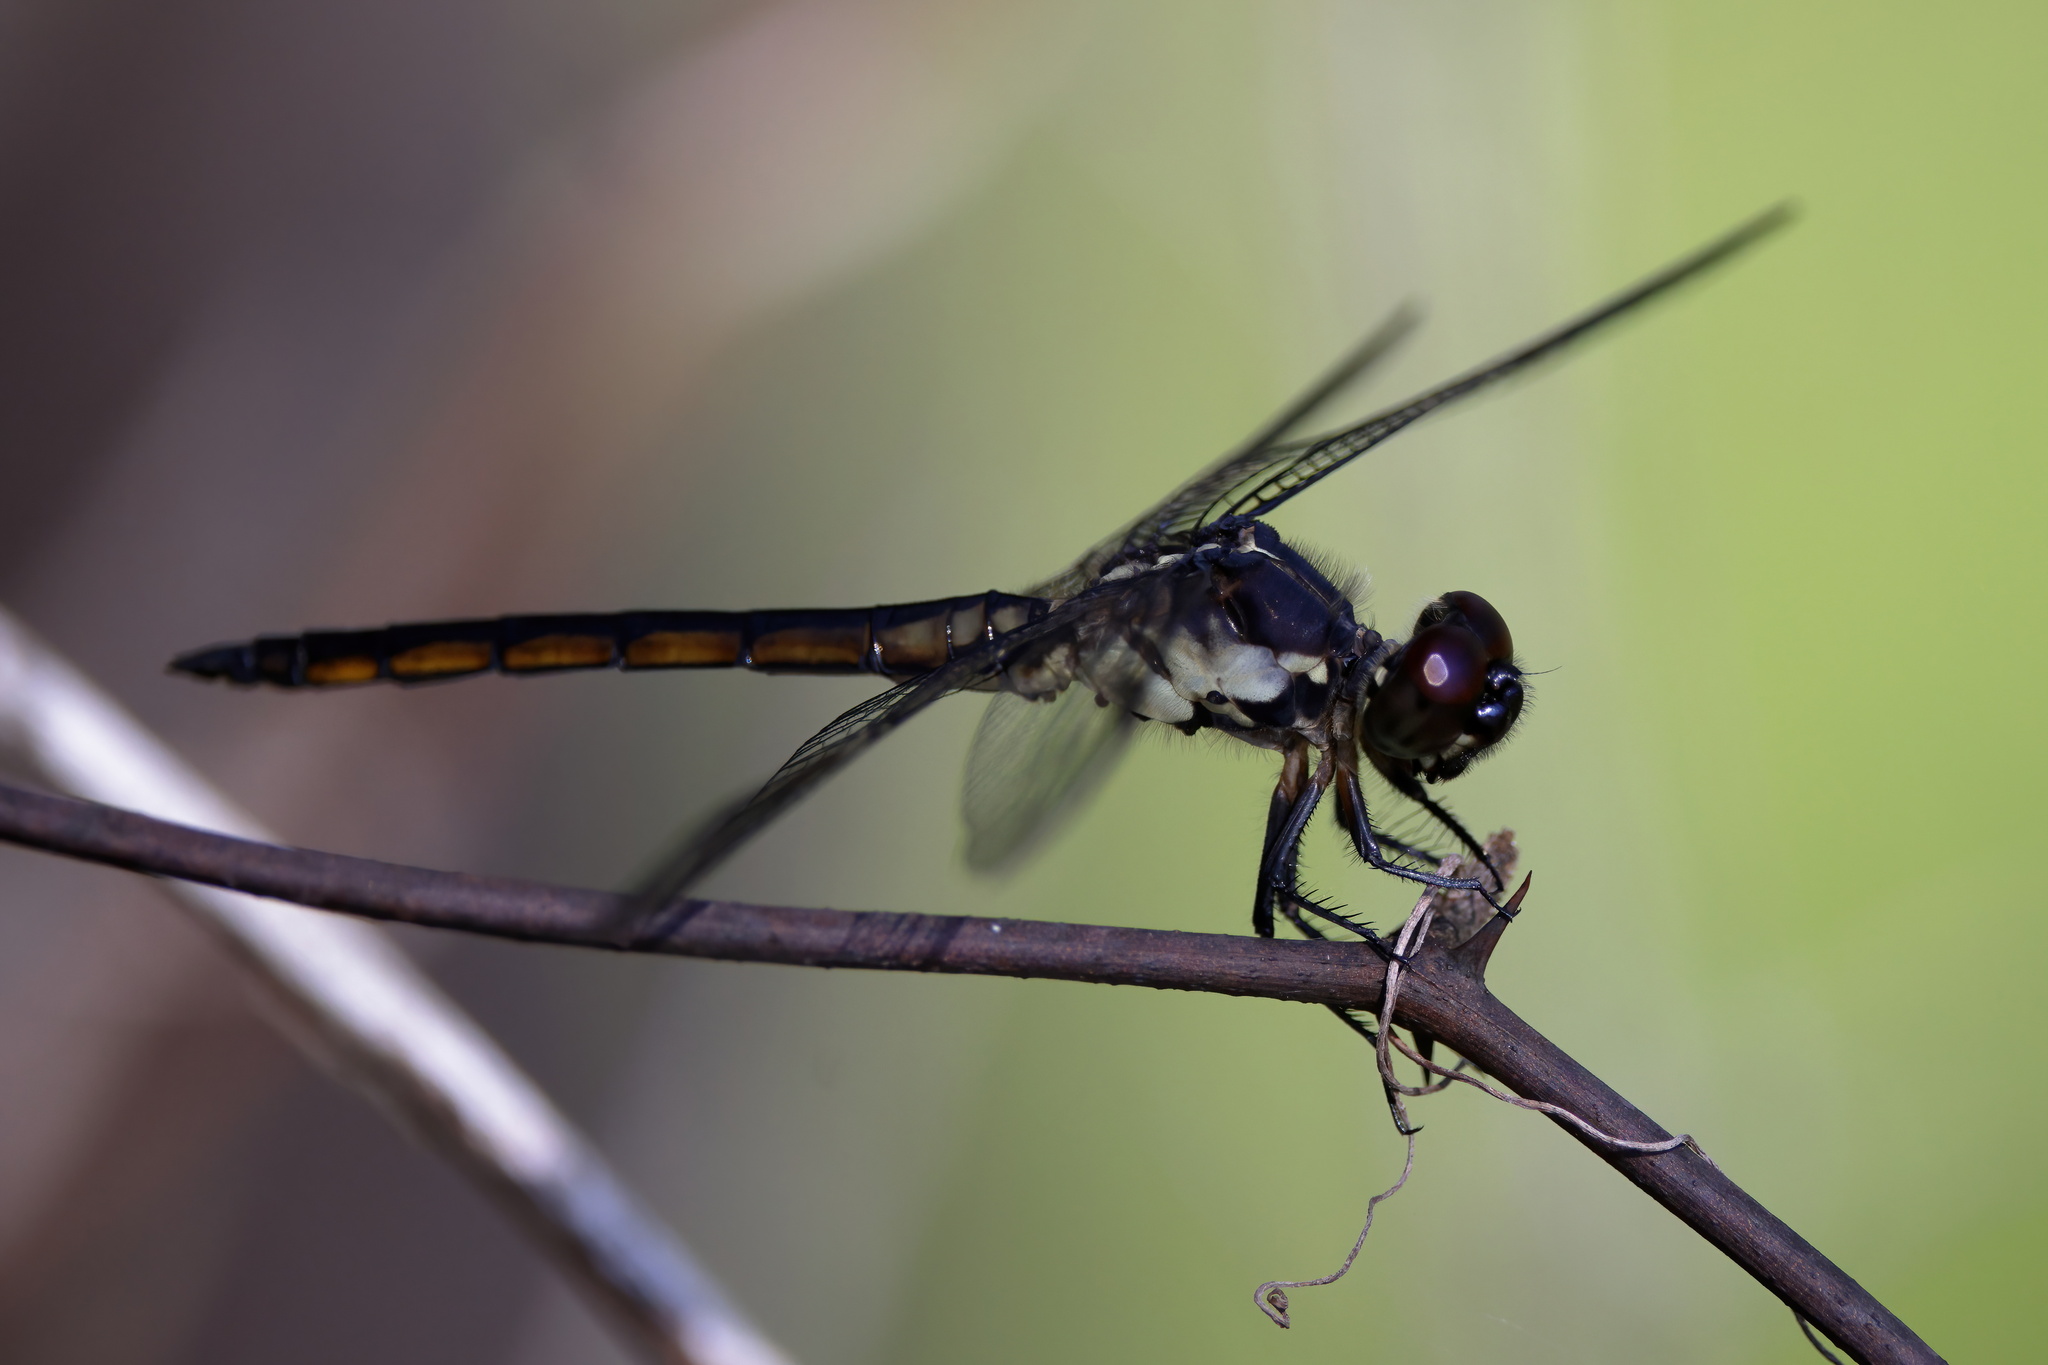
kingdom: Animalia
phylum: Arthropoda
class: Insecta
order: Odonata
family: Libellulidae
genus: Libellula
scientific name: Libellula axilena
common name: Bar-winged skimmer
